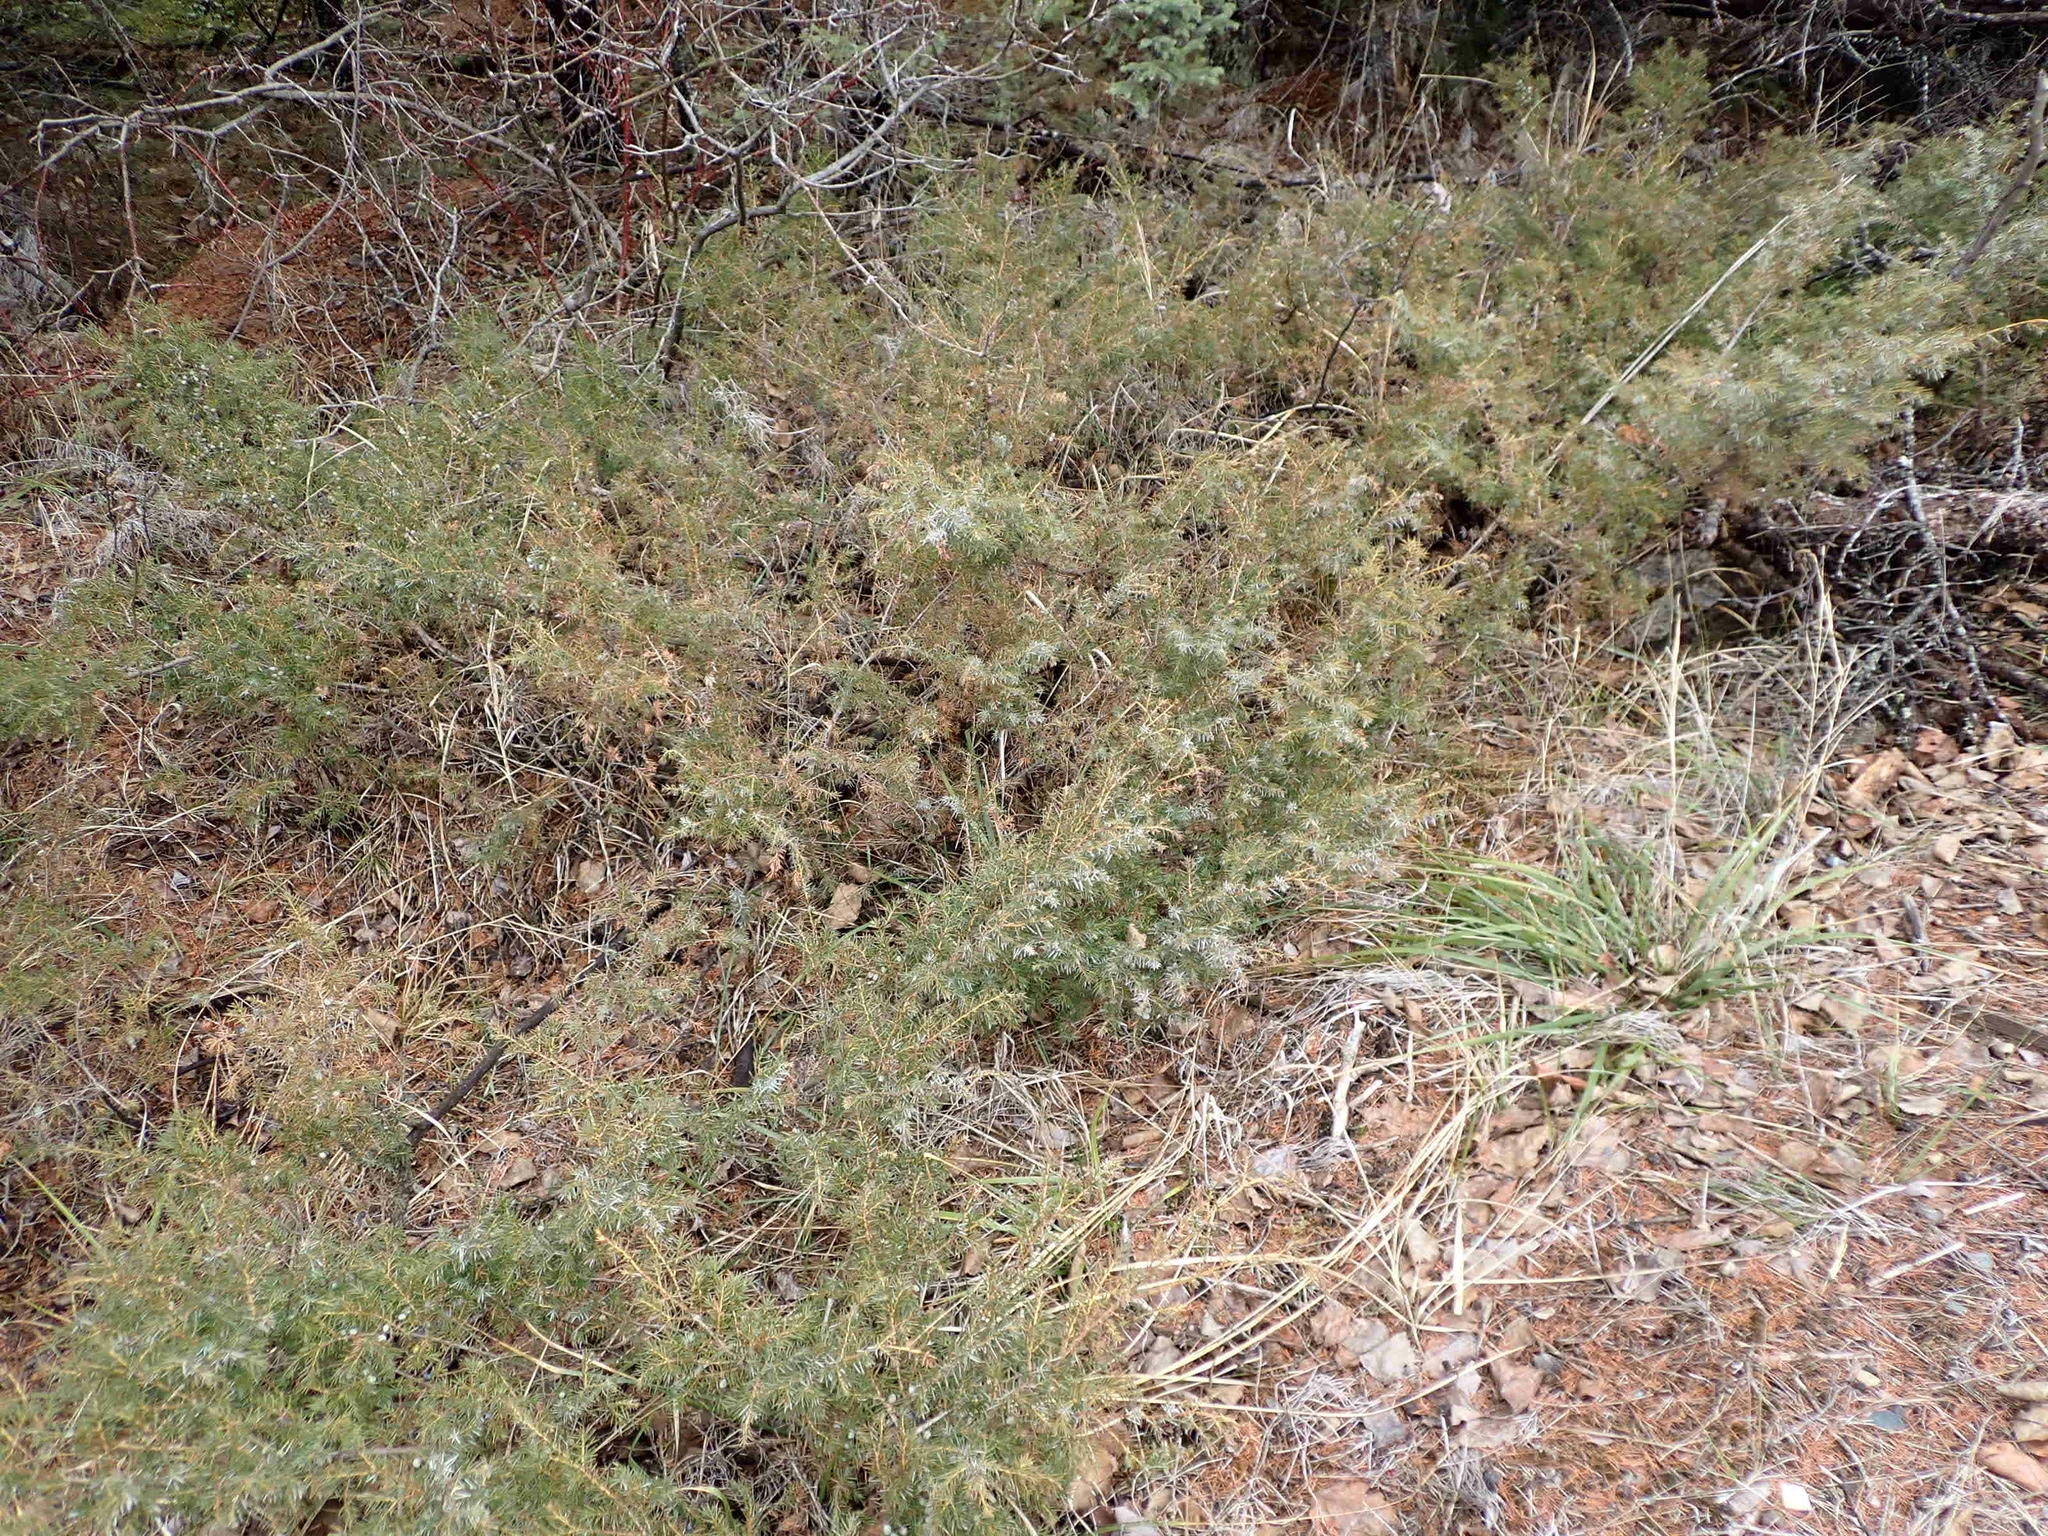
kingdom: Plantae
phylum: Tracheophyta
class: Pinopsida
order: Pinales
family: Cupressaceae
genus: Juniperus
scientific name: Juniperus communis
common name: Common juniper
